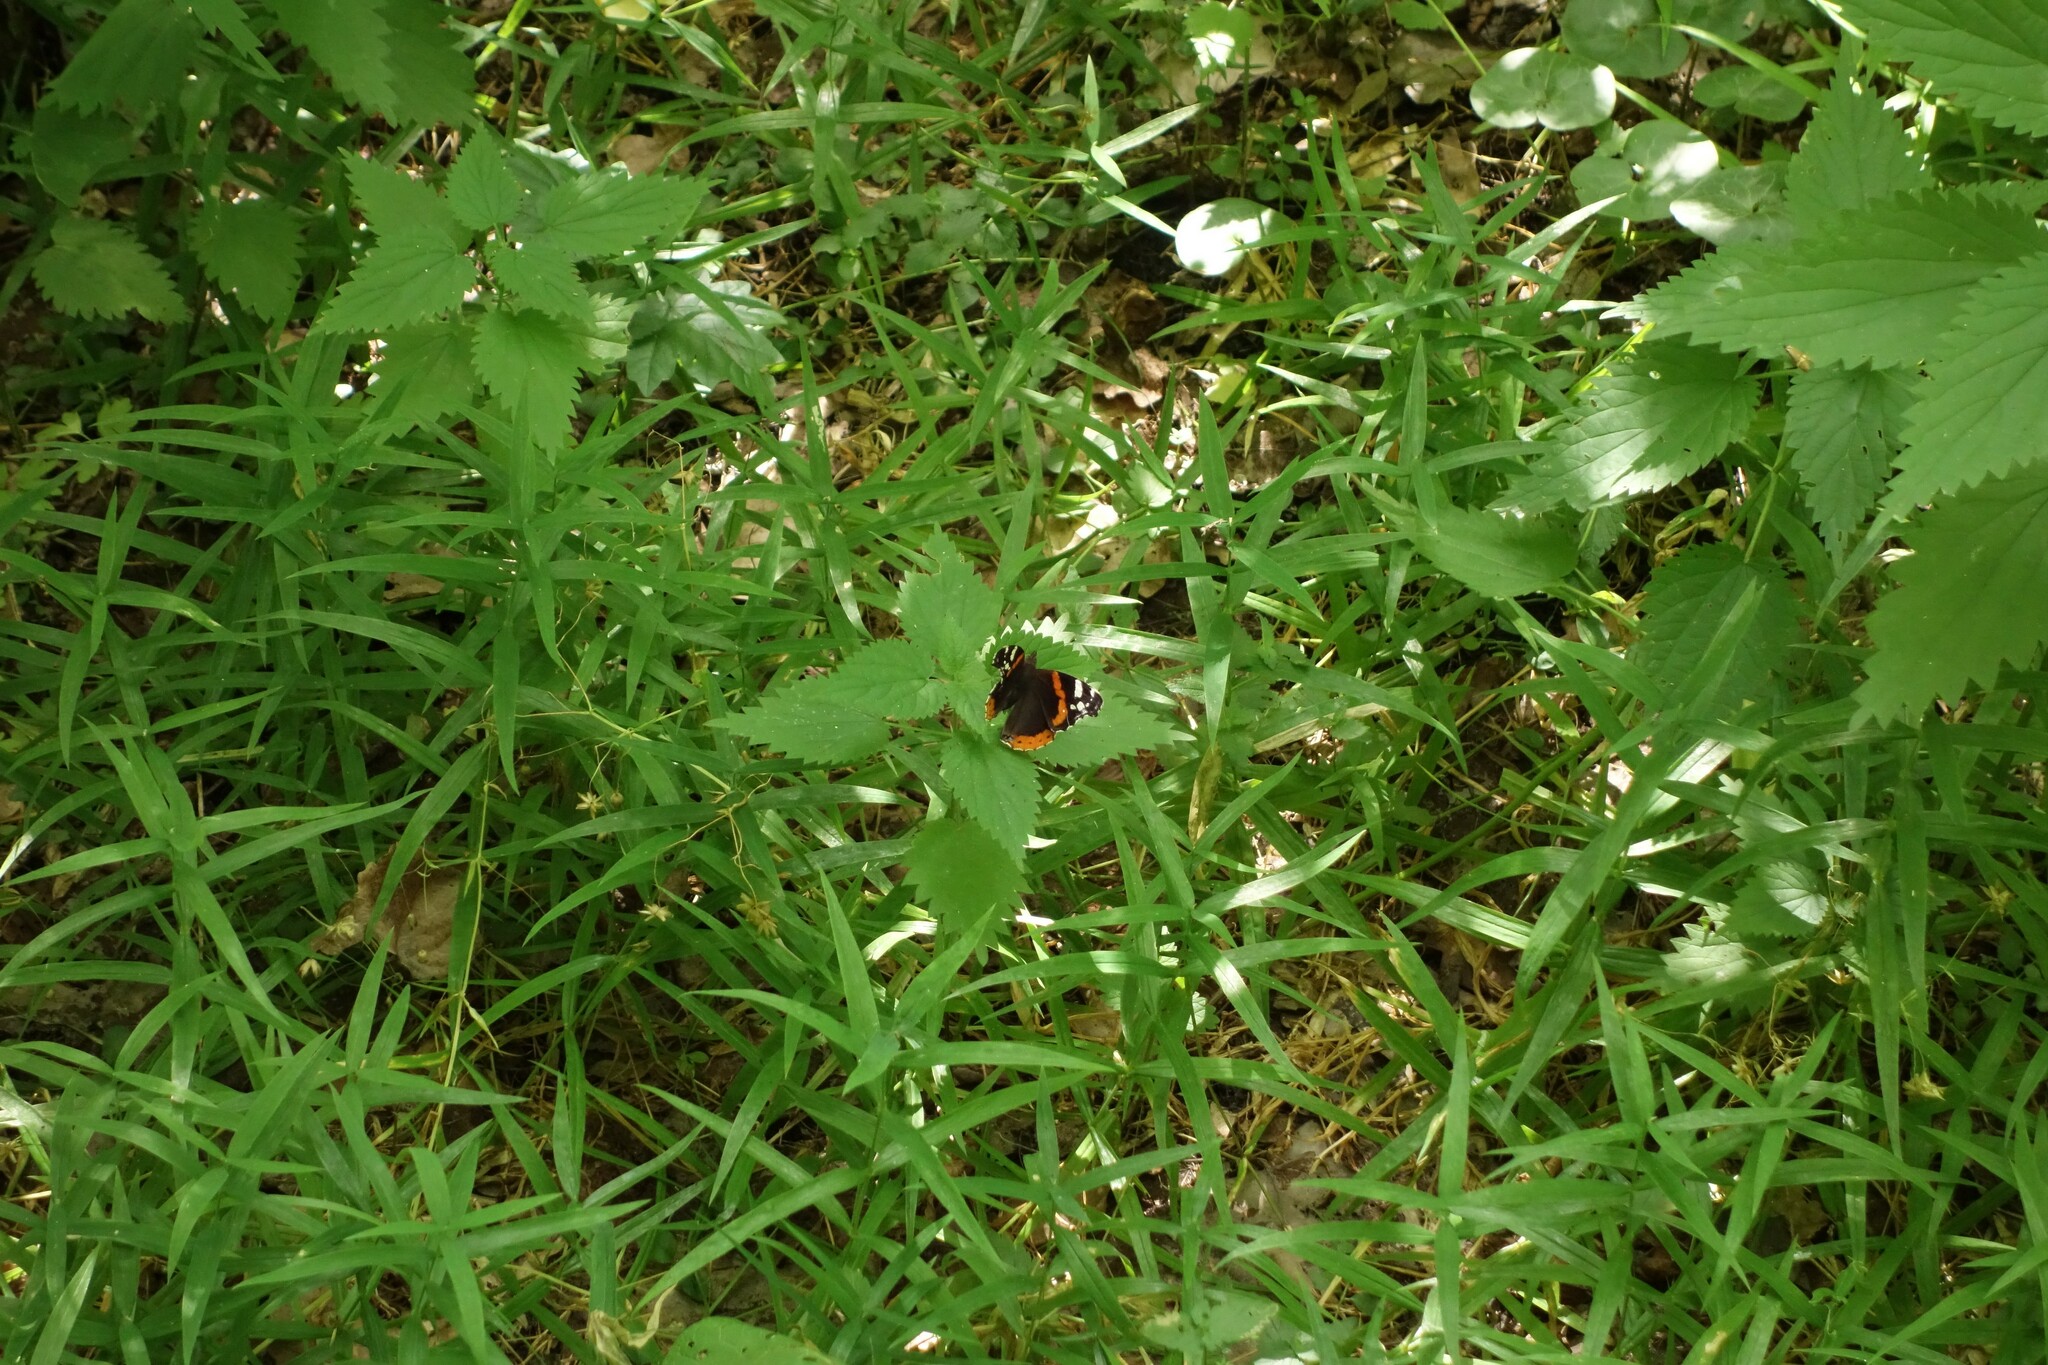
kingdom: Animalia
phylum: Arthropoda
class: Insecta
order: Lepidoptera
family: Nymphalidae
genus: Vanessa
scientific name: Vanessa atalanta
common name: Red admiral
